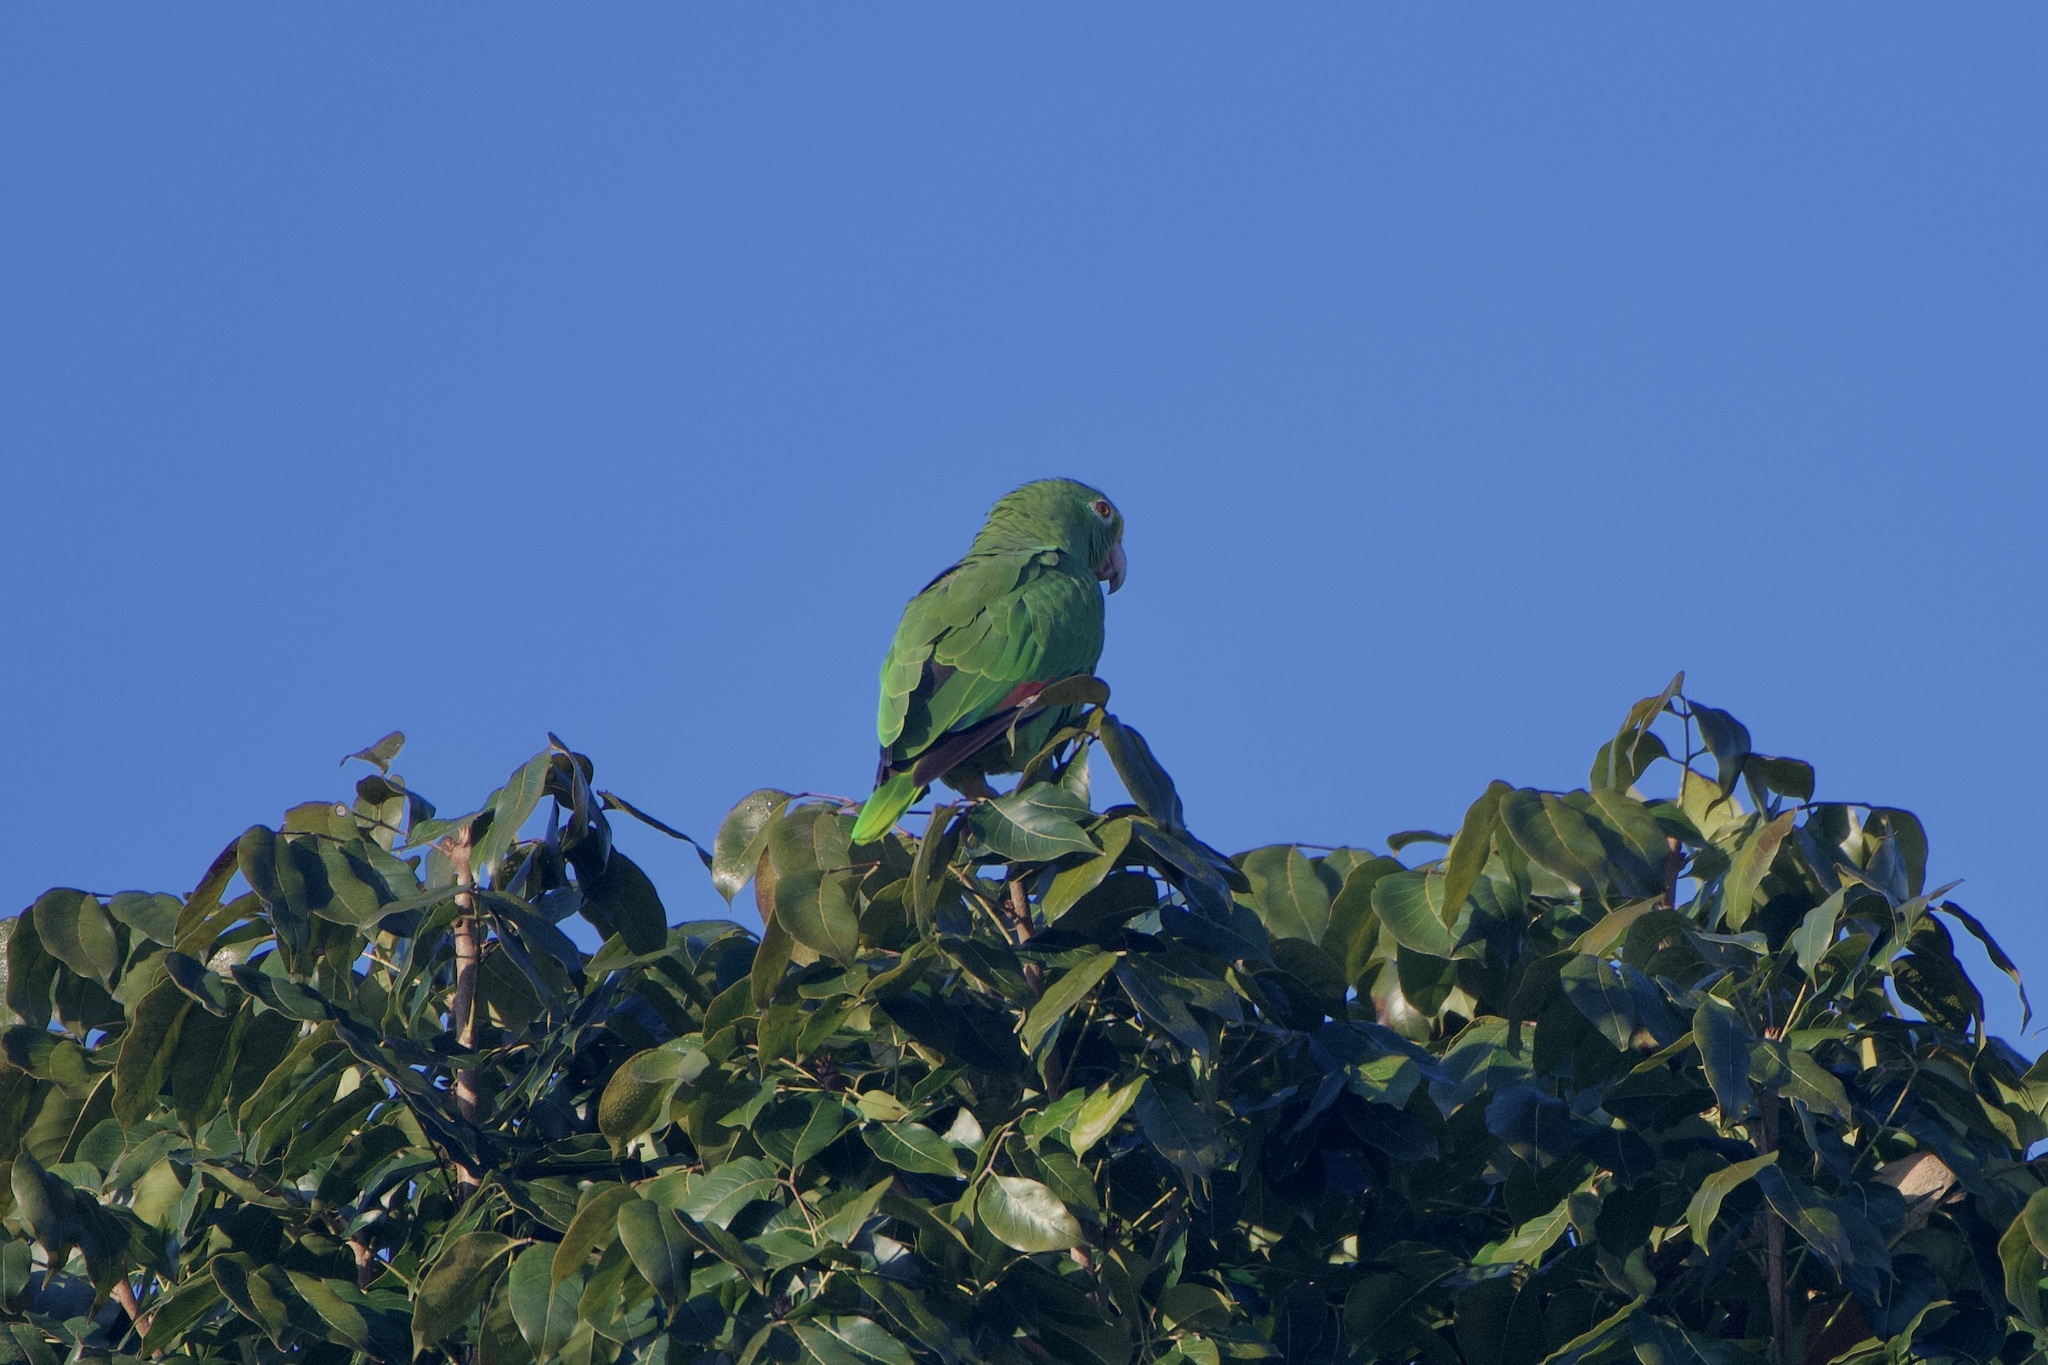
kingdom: Animalia
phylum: Chordata
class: Aves
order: Psittaciformes
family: Psittacidae
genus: Amazona
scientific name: Amazona ochrocephala
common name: Yellow-crowned amazon
